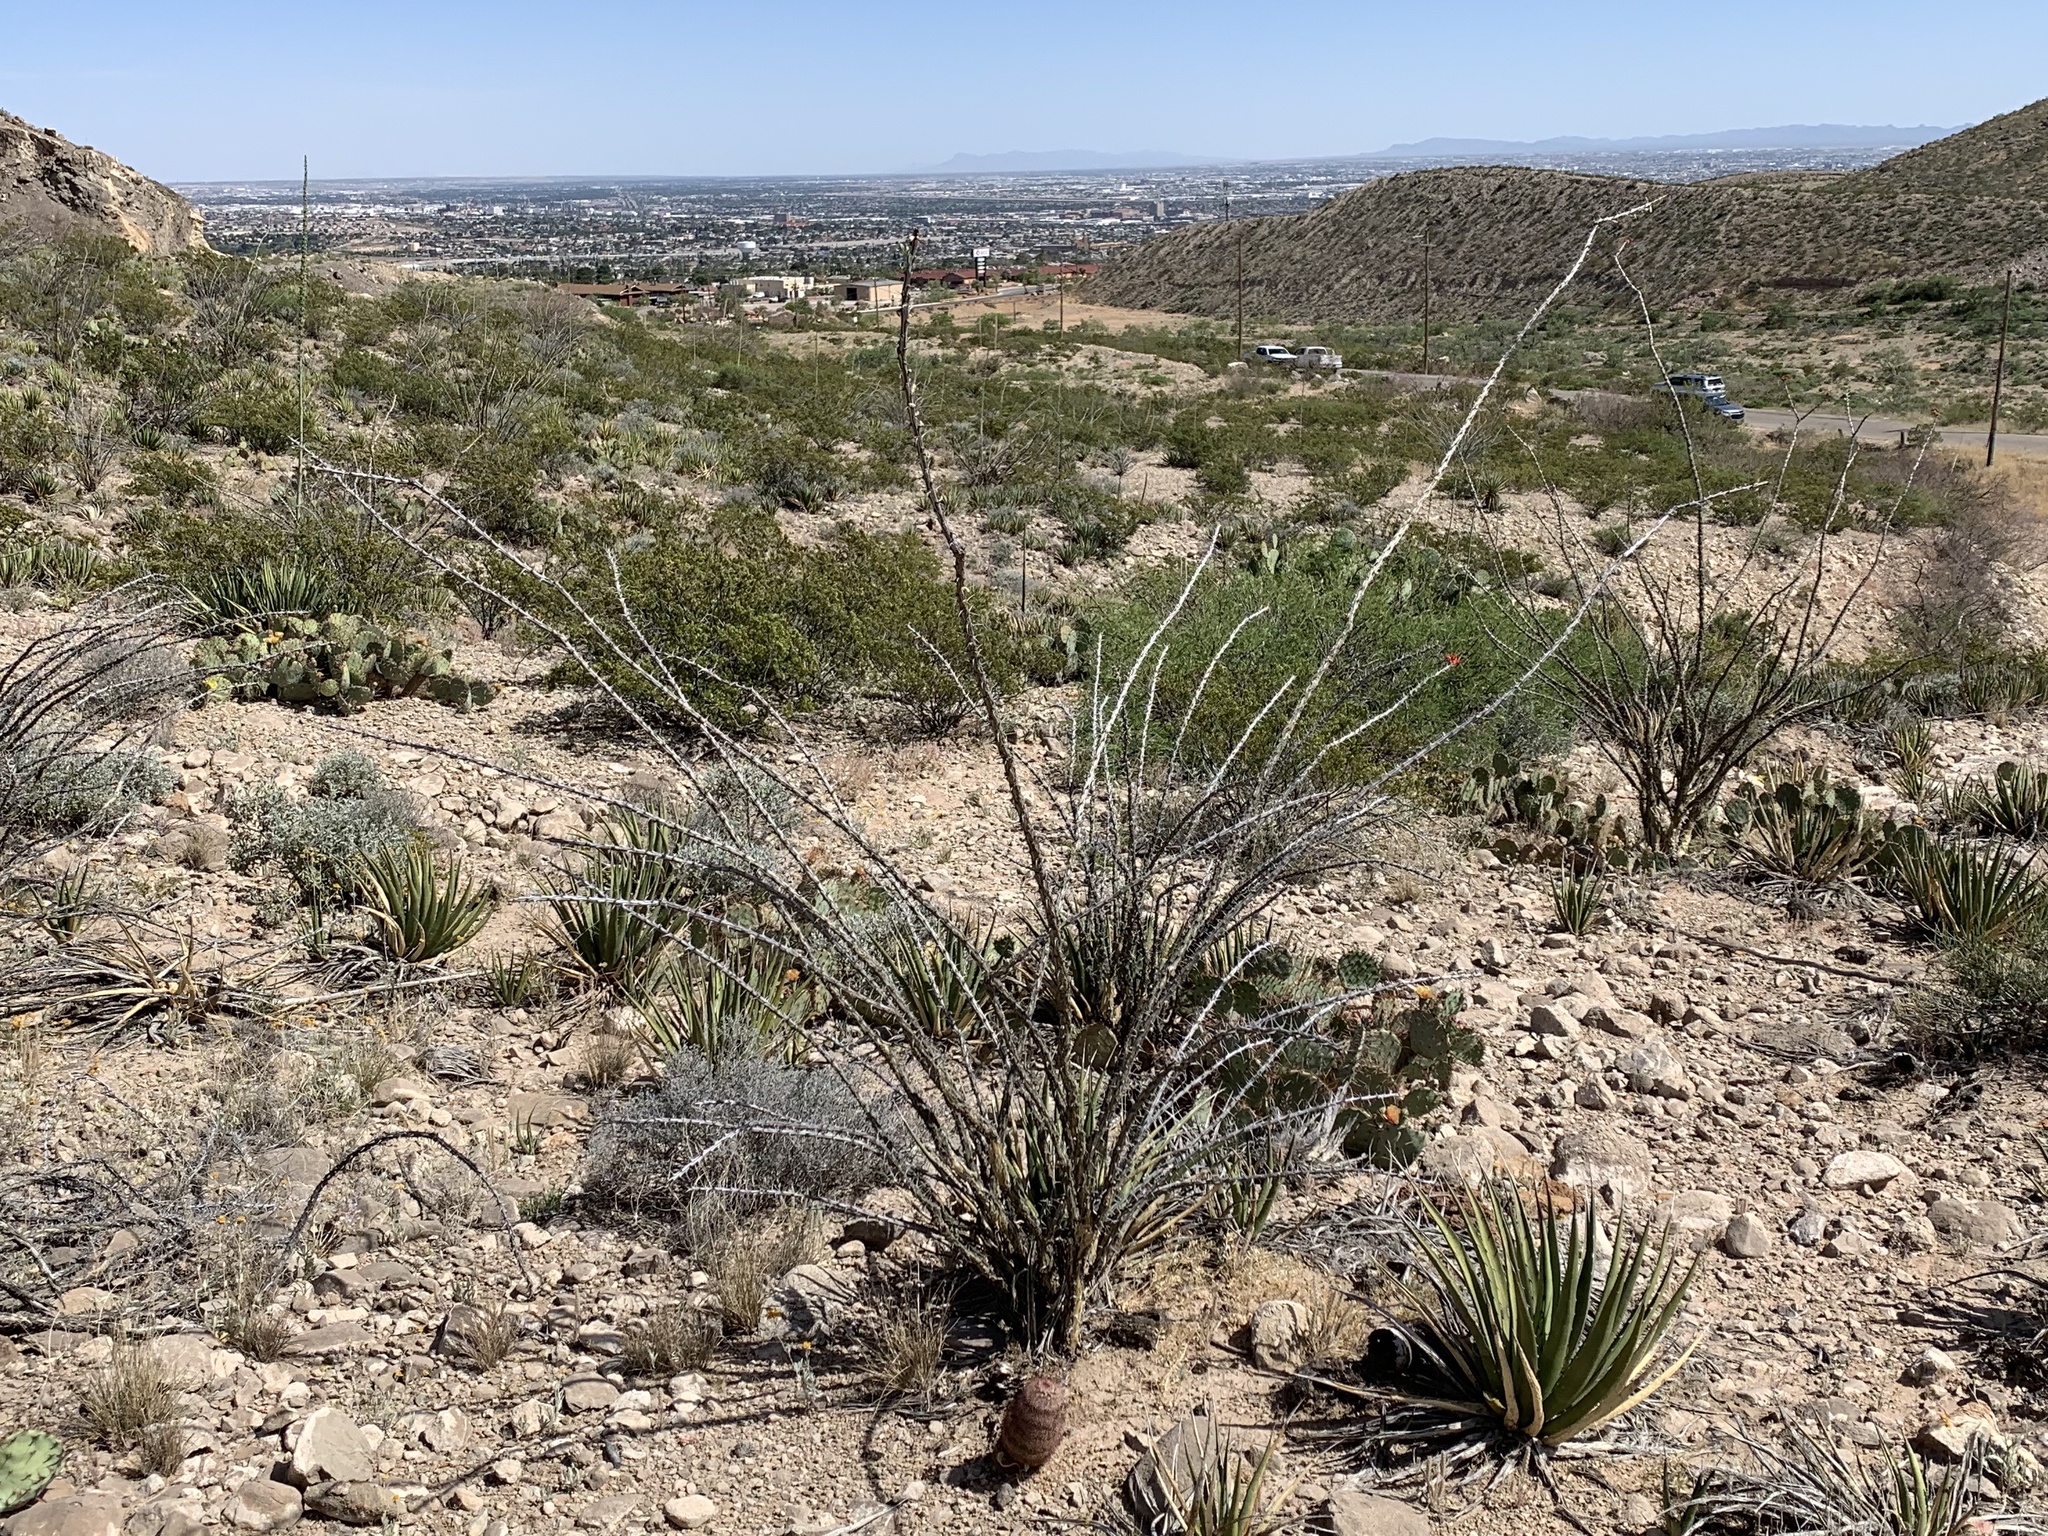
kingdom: Plantae
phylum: Tracheophyta
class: Magnoliopsida
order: Ericales
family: Fouquieriaceae
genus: Fouquieria
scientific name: Fouquieria splendens
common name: Vine-cactus
